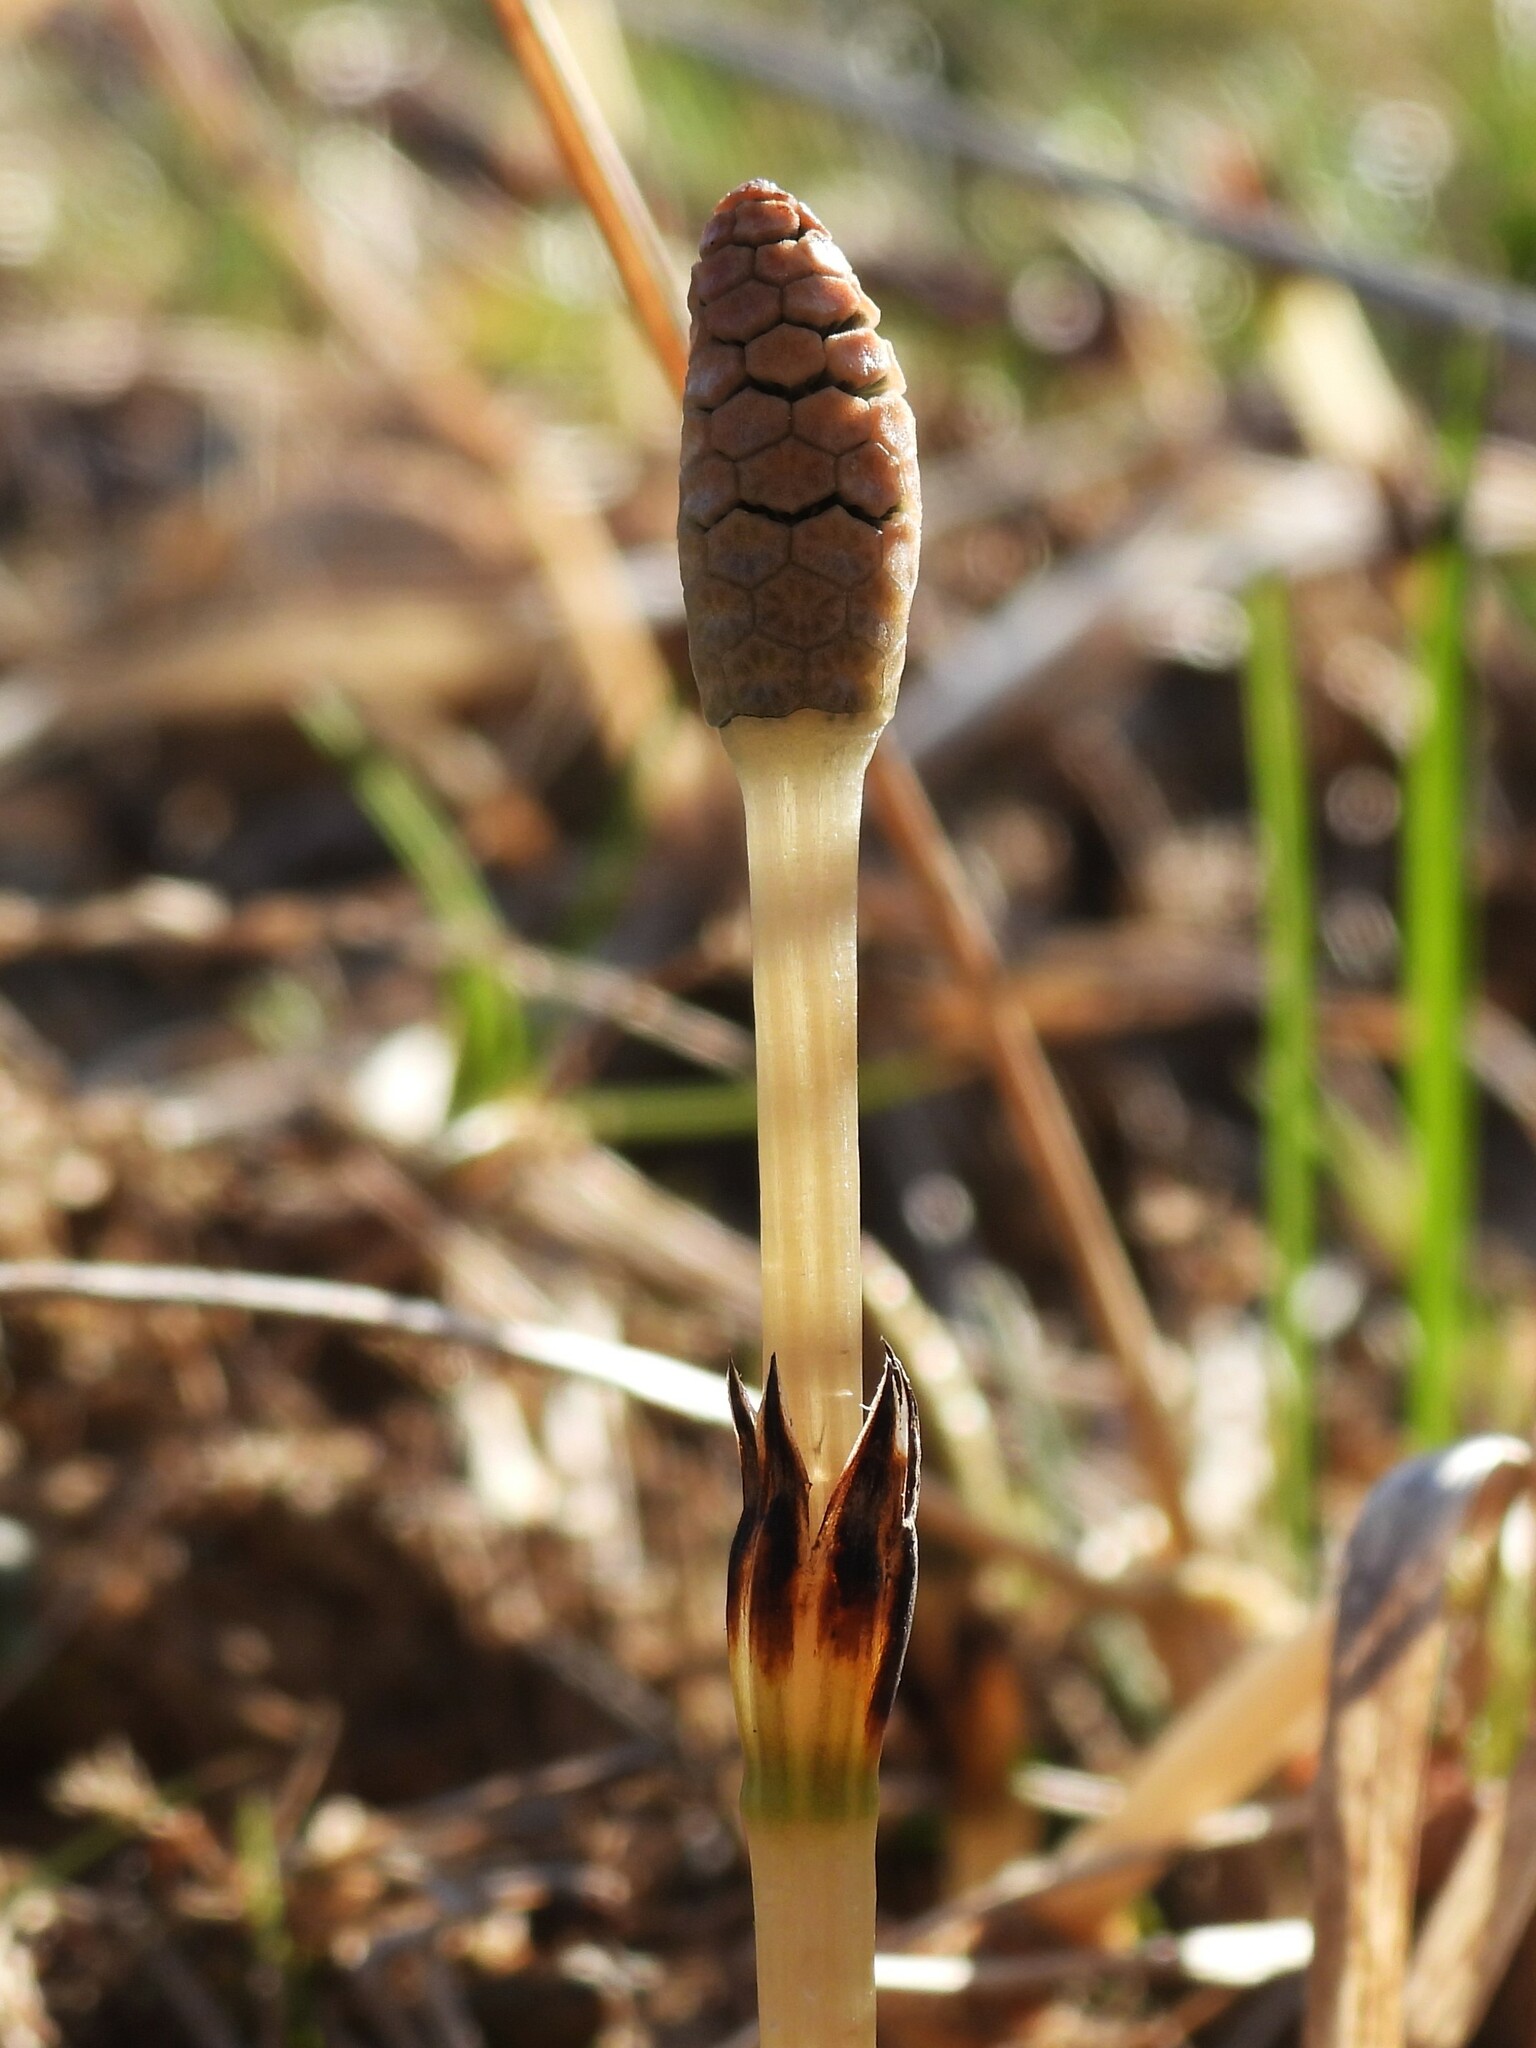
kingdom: Plantae
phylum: Tracheophyta
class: Polypodiopsida
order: Equisetales
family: Equisetaceae
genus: Equisetum
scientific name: Equisetum arvense
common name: Field horsetail
